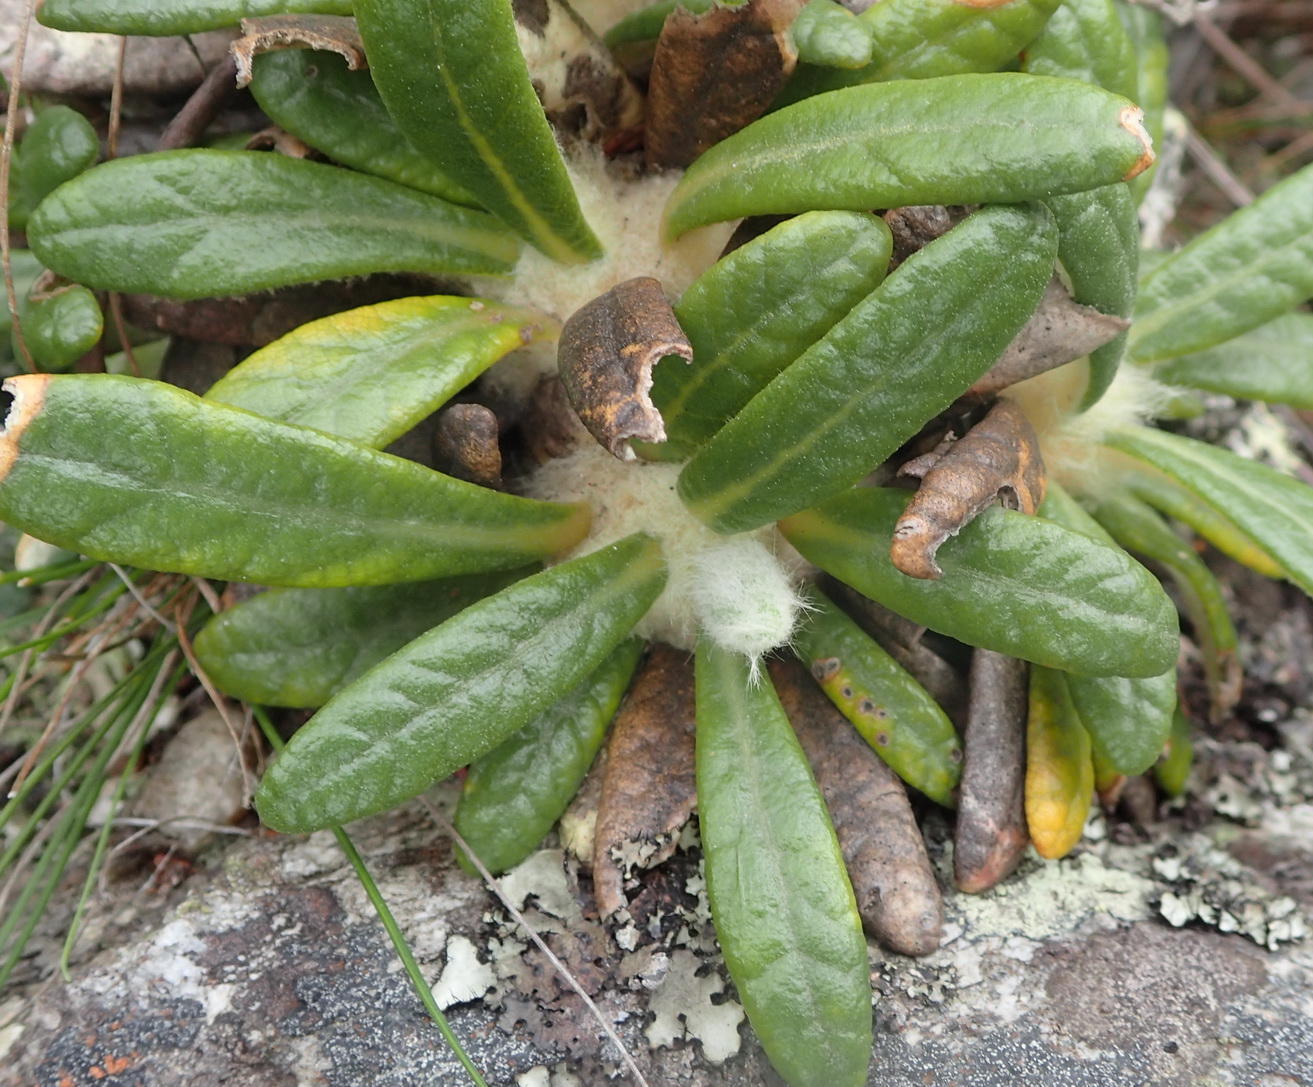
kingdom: Plantae
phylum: Tracheophyta
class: Magnoliopsida
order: Asterales
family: Asteraceae
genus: Oldenburgia
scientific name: Oldenburgia paradoxa
